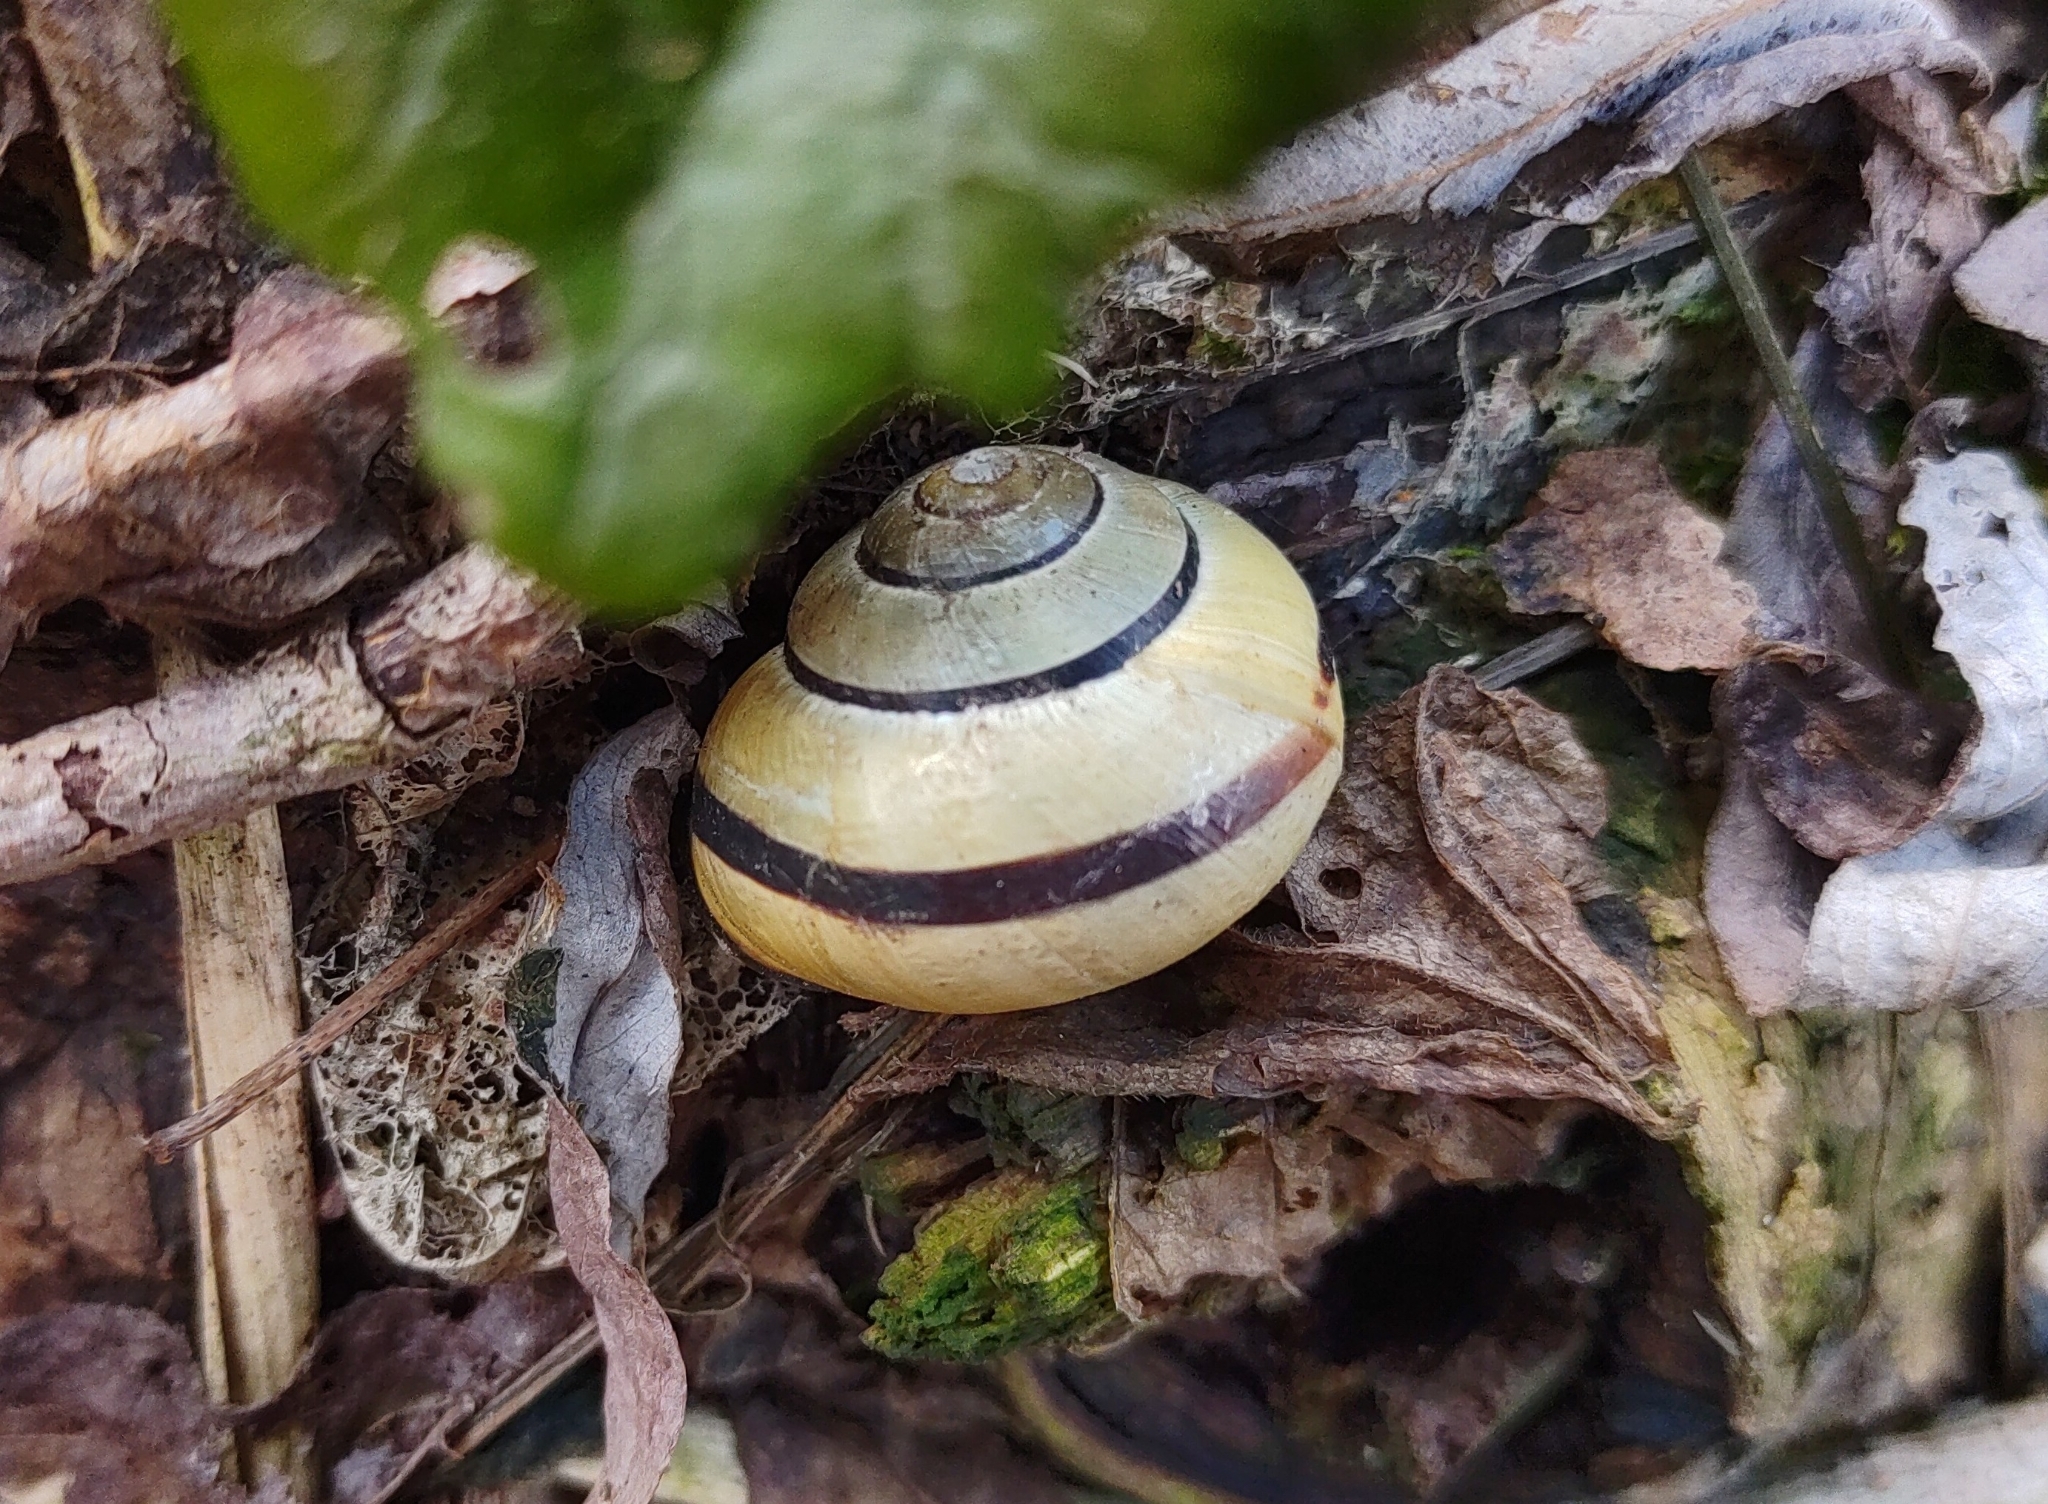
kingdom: Animalia
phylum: Mollusca
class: Gastropoda
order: Stylommatophora
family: Helicidae
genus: Cepaea
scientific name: Cepaea nemoralis
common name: Grovesnail
